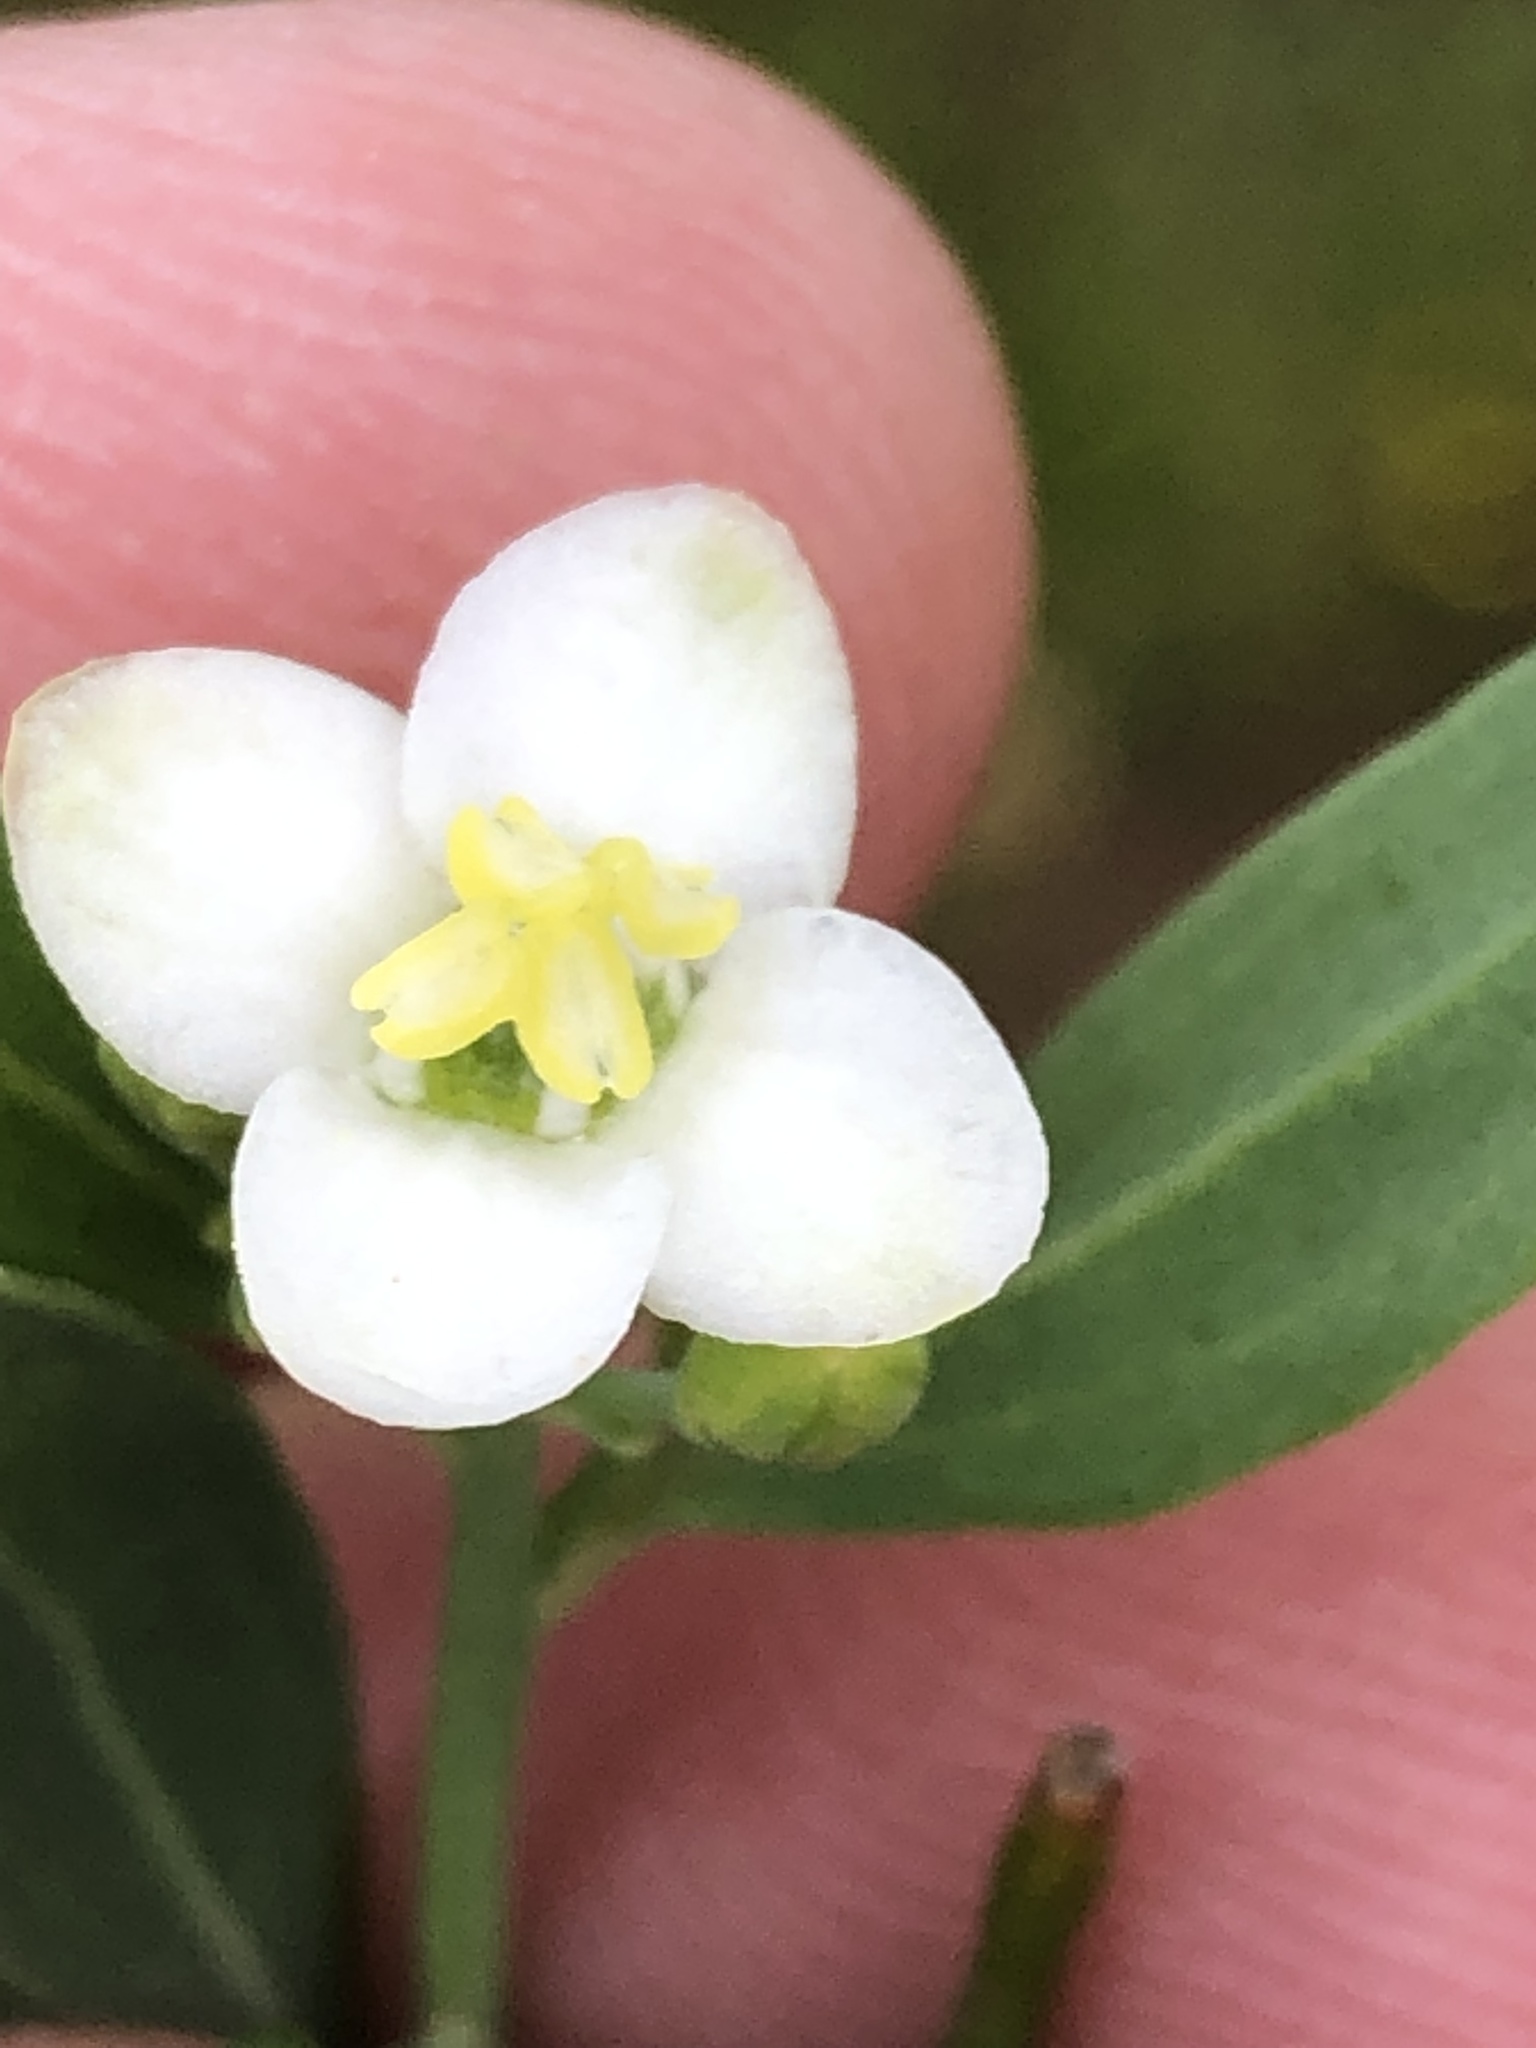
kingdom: Plantae
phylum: Tracheophyta
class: Magnoliopsida
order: Solanales
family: Montiniaceae
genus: Montinia
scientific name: Montinia caryophyllacea
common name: Wild clove-bush
